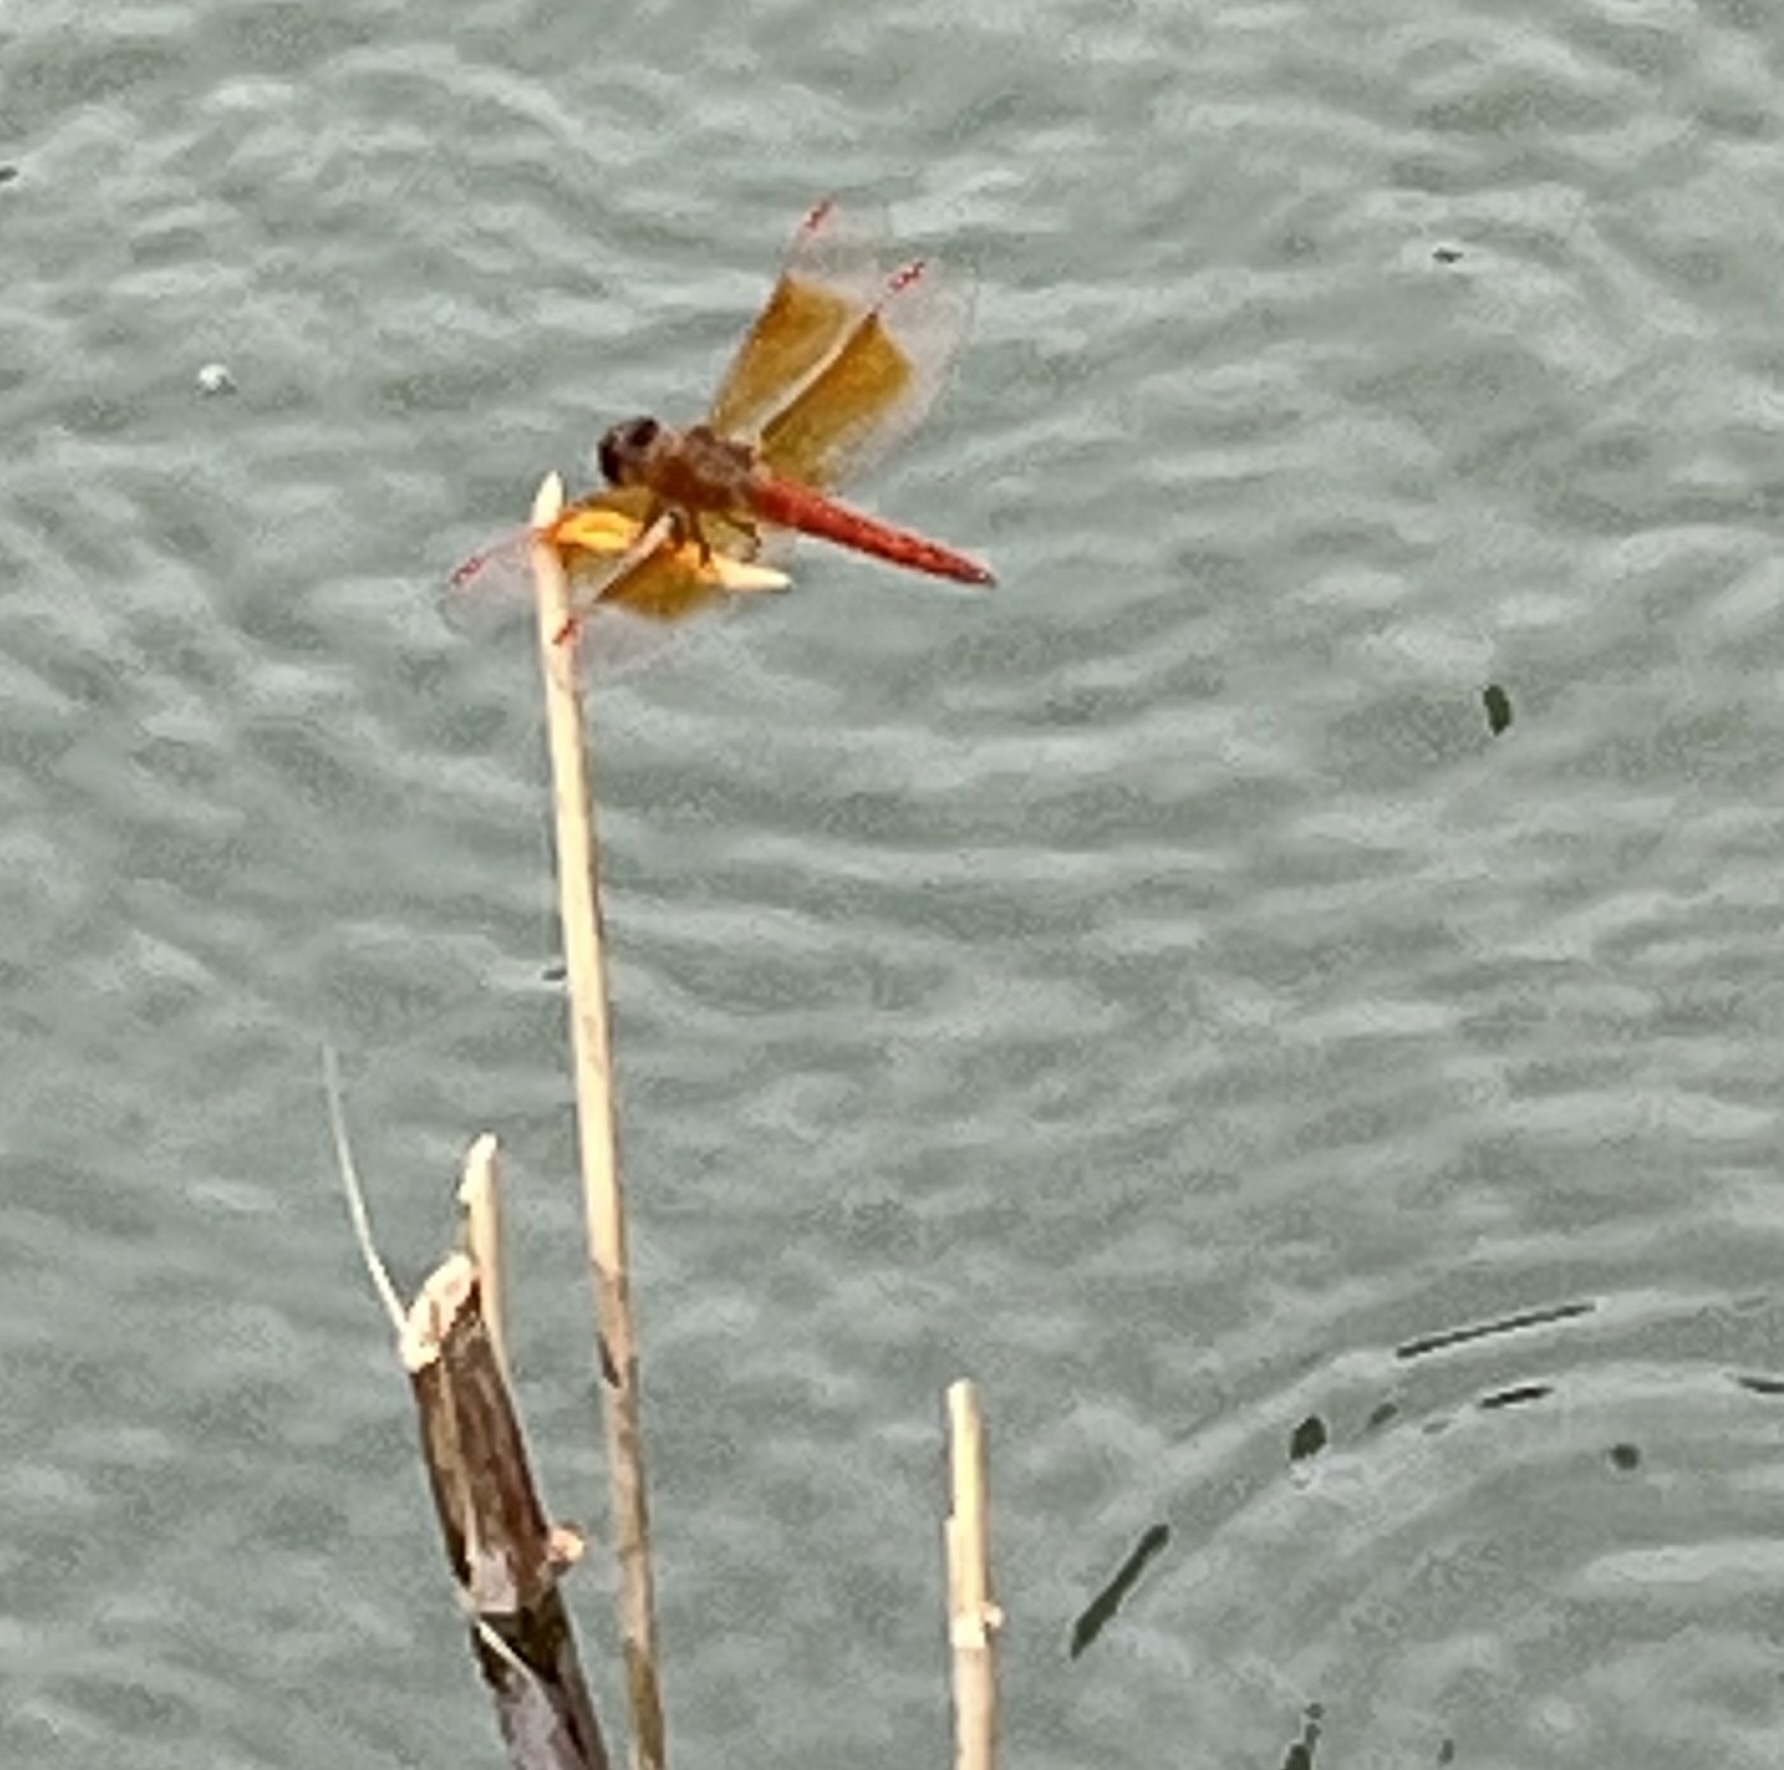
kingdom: Animalia
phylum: Arthropoda
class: Insecta
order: Odonata
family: Libellulidae
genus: Brachythemis
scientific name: Brachythemis contaminata
